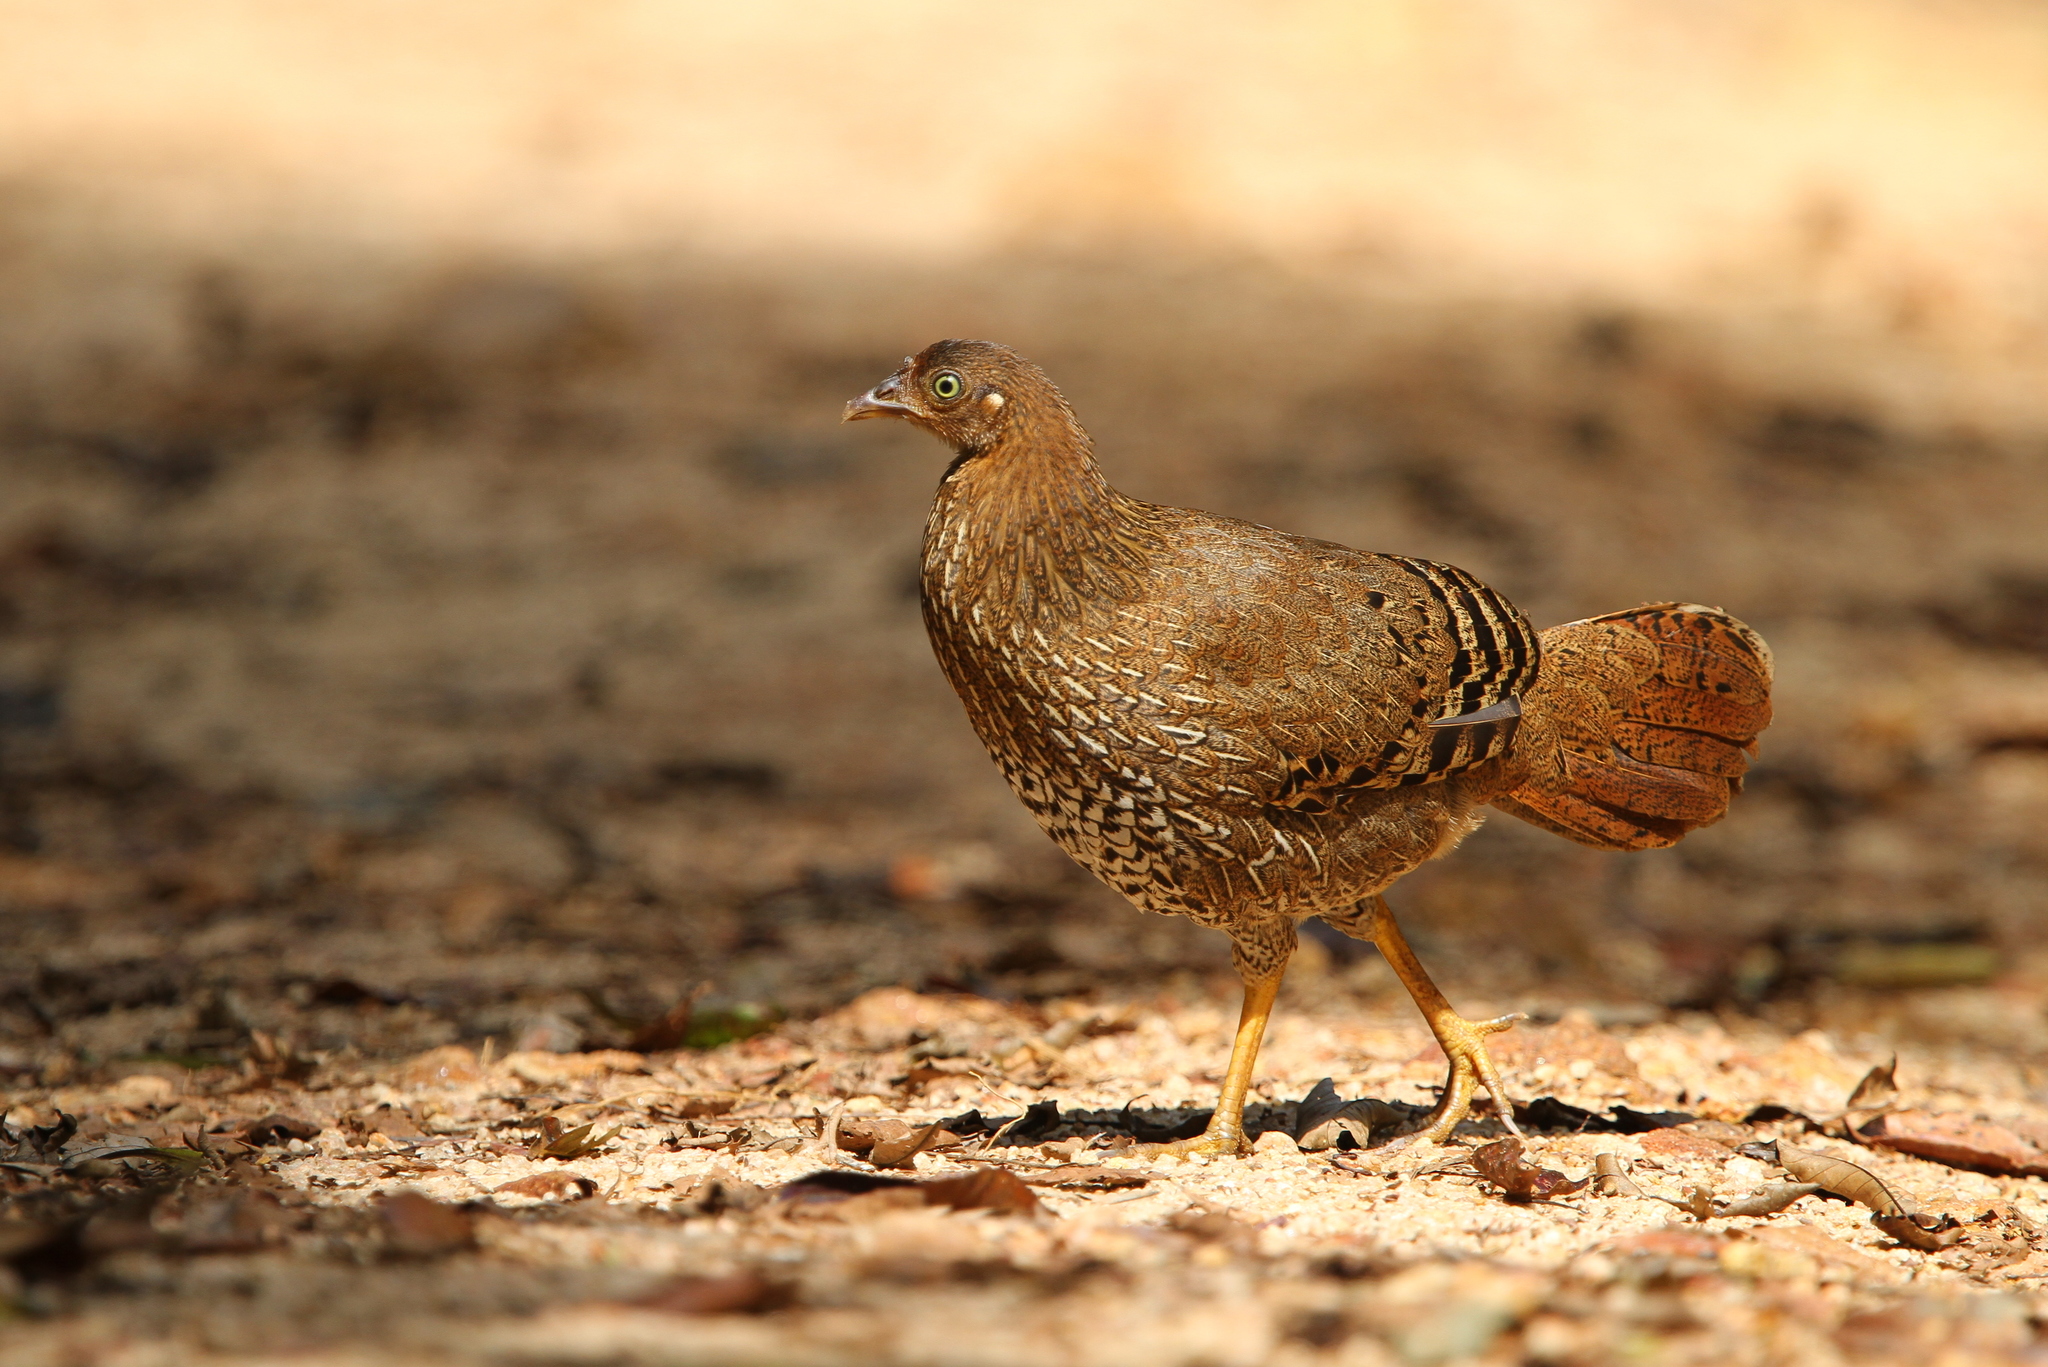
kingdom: Animalia
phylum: Chordata
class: Aves
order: Galliformes
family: Phasianidae
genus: Gallus
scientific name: Gallus lafayettii
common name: Sri lanka junglefowl
